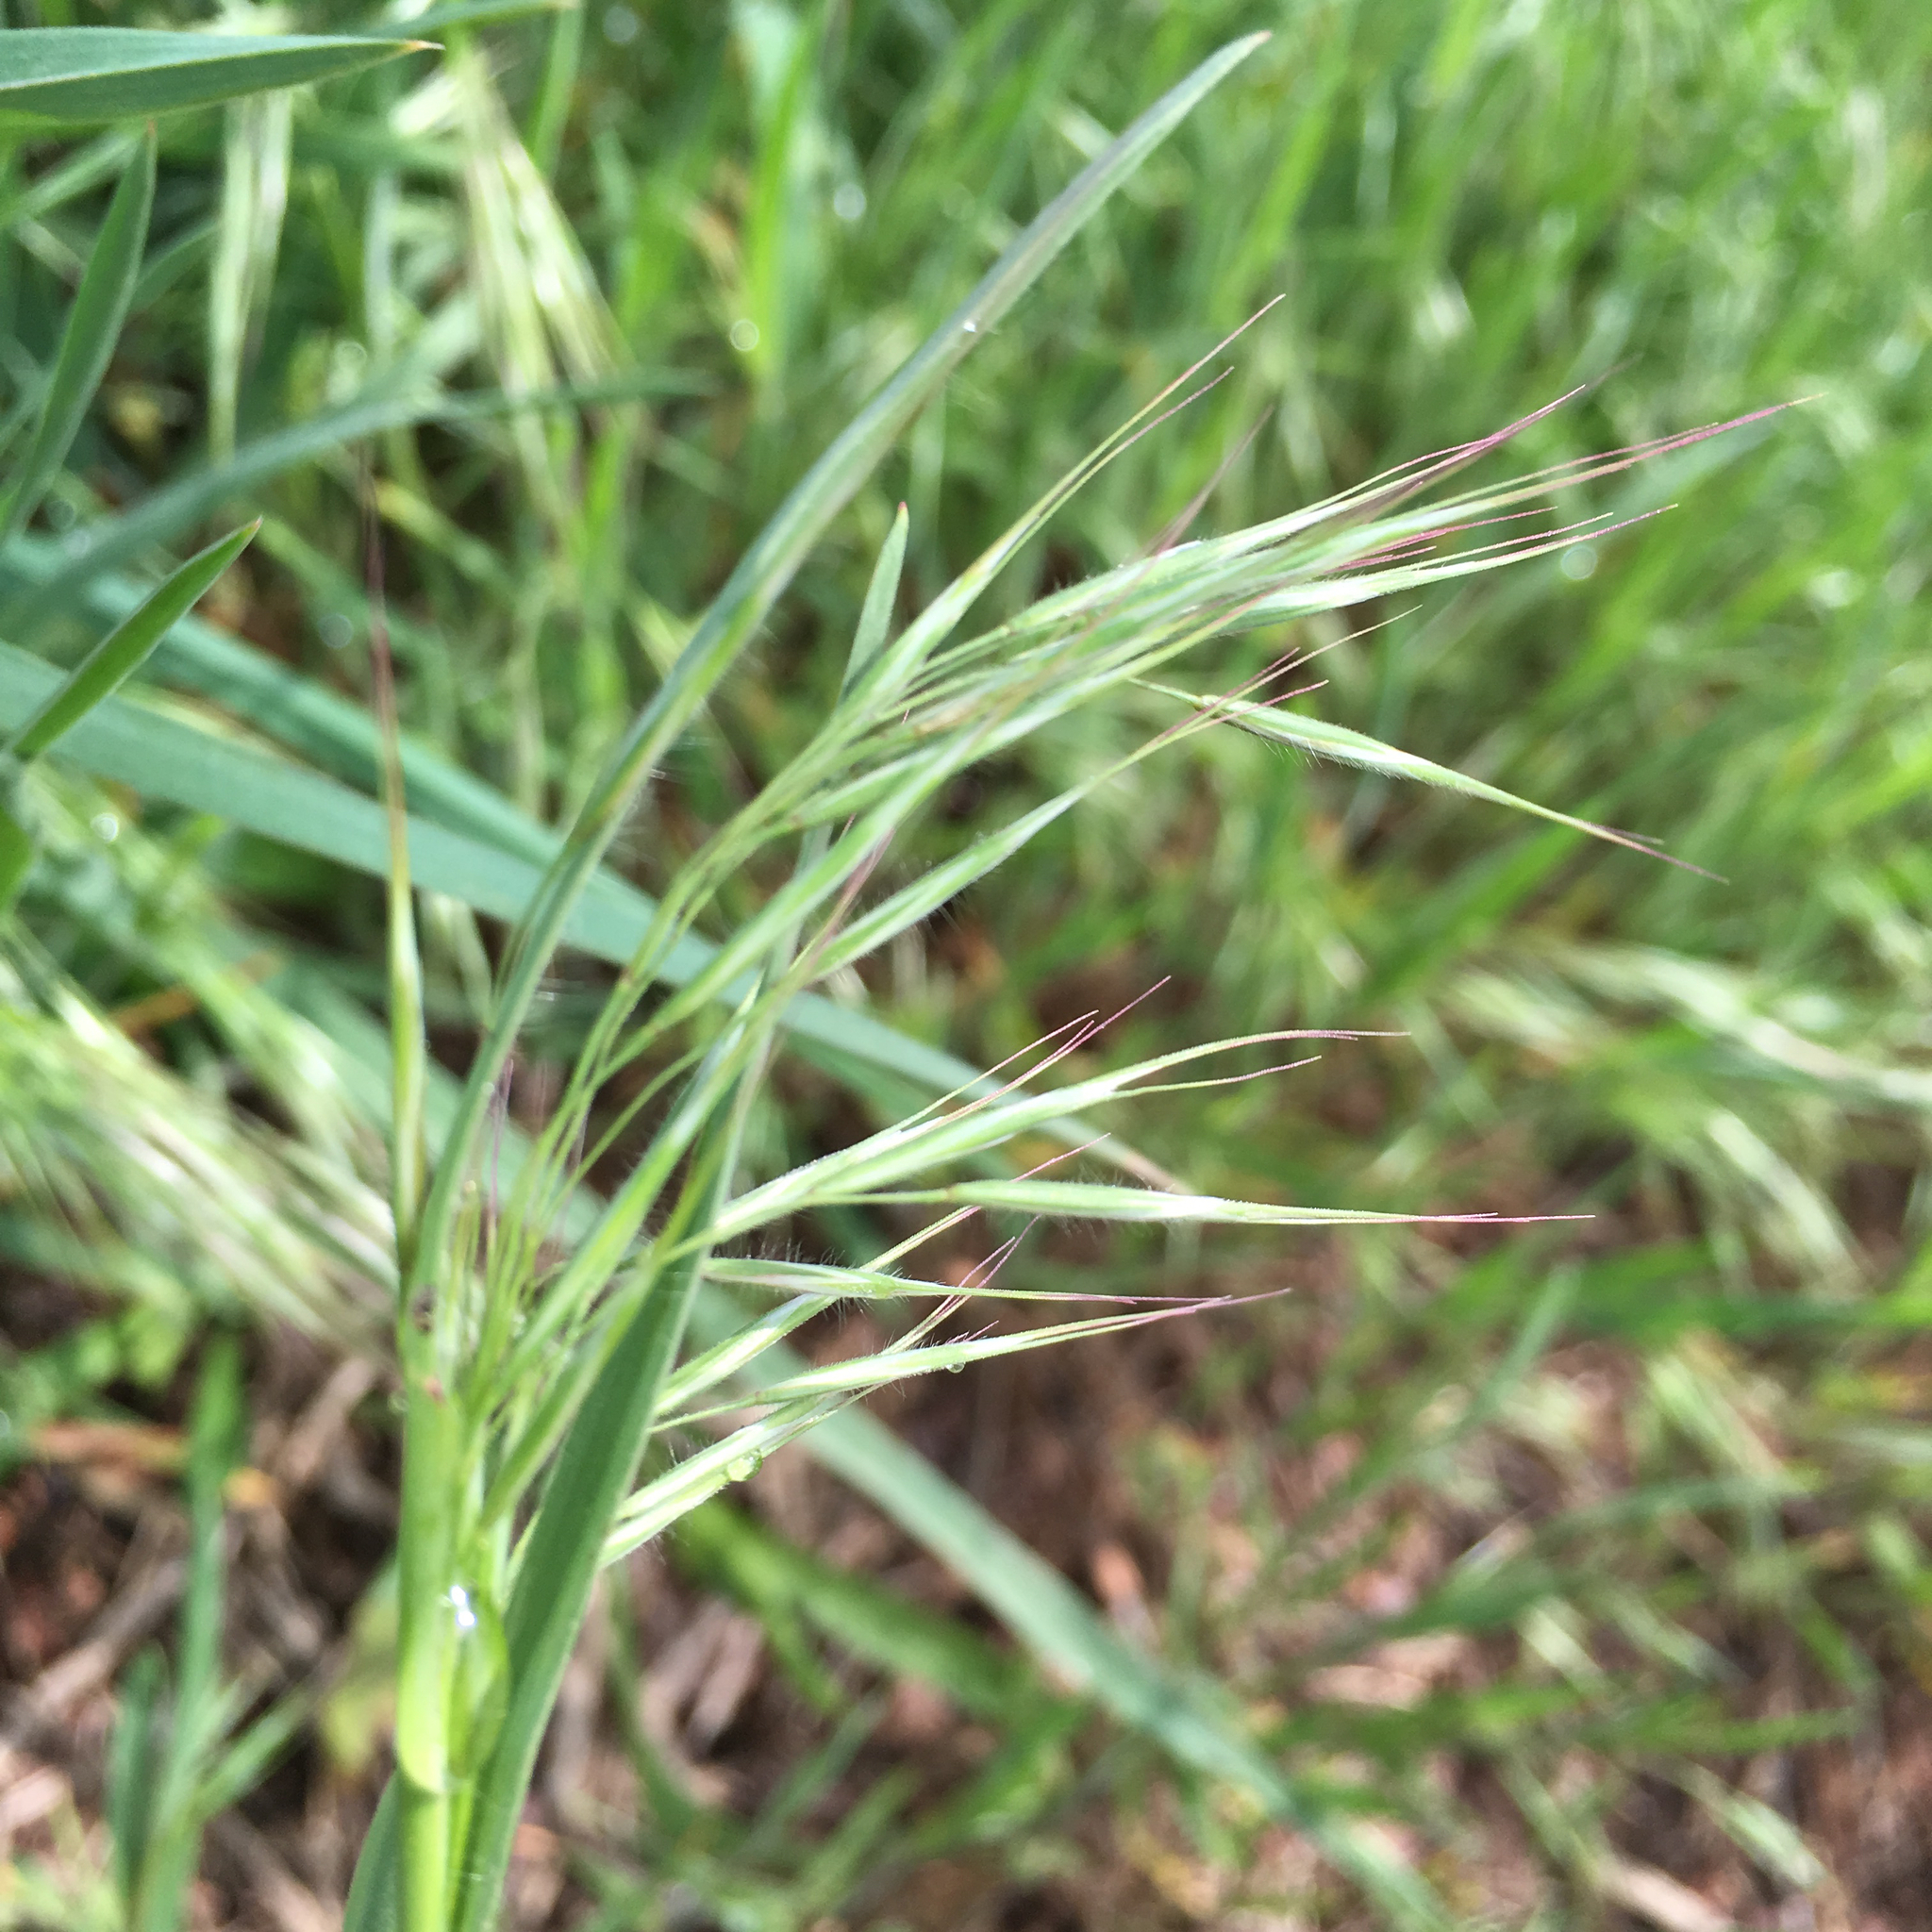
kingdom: Plantae
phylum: Tracheophyta
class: Liliopsida
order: Poales
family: Poaceae
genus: Bromus
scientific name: Bromus tectorum
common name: Cheatgrass
